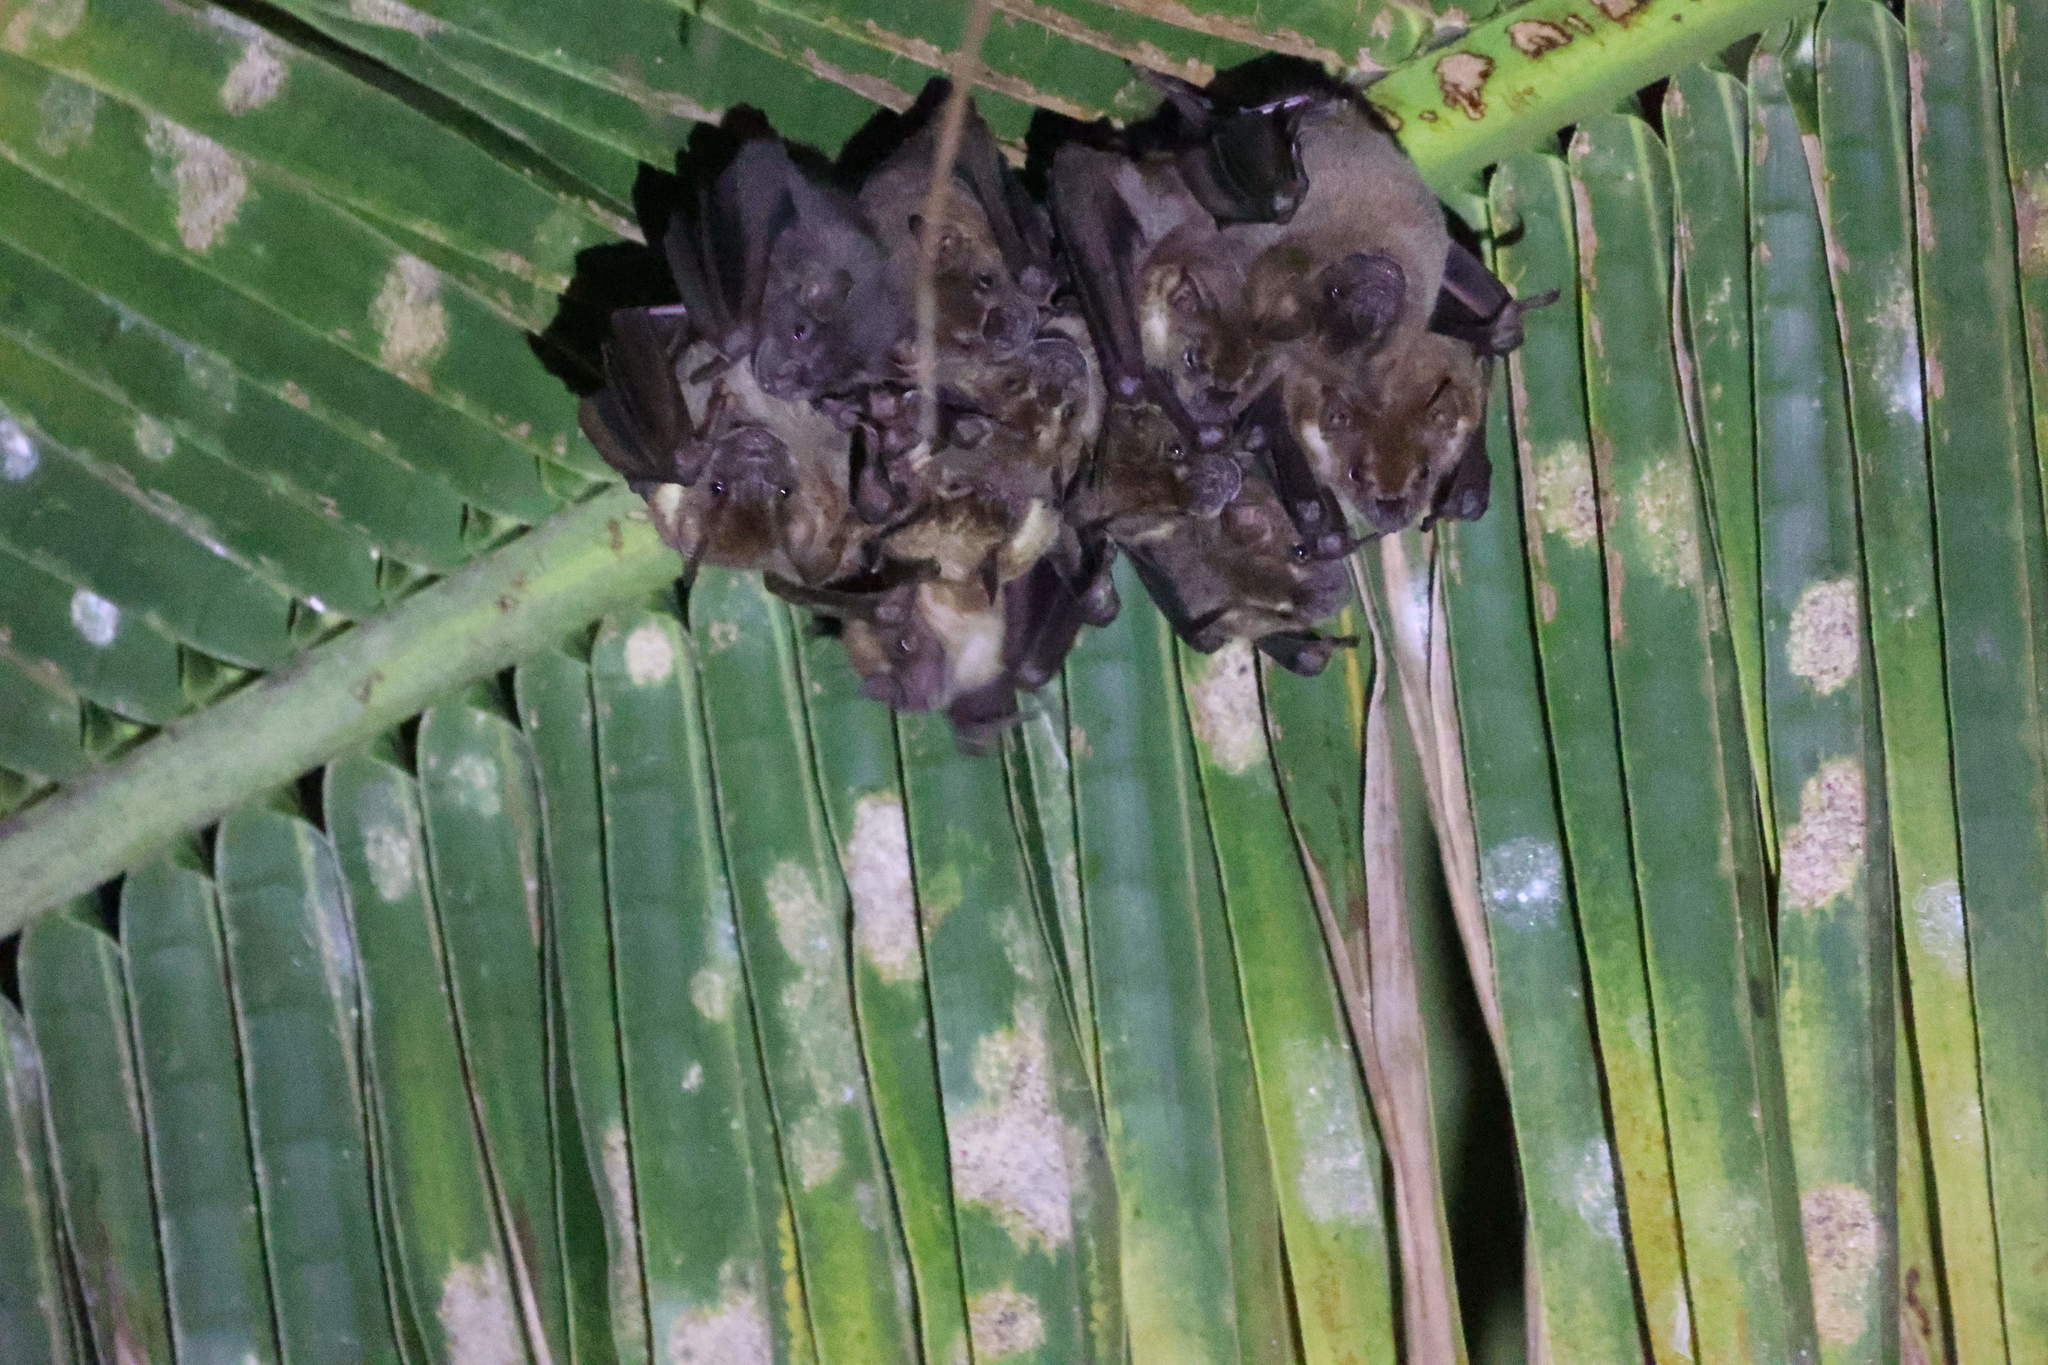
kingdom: Animalia
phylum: Chordata
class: Mammalia
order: Chiroptera
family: Phyllostomidae
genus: Artibeus
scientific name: Artibeus jamaicensis
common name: Jamaican fruit-eating bat
